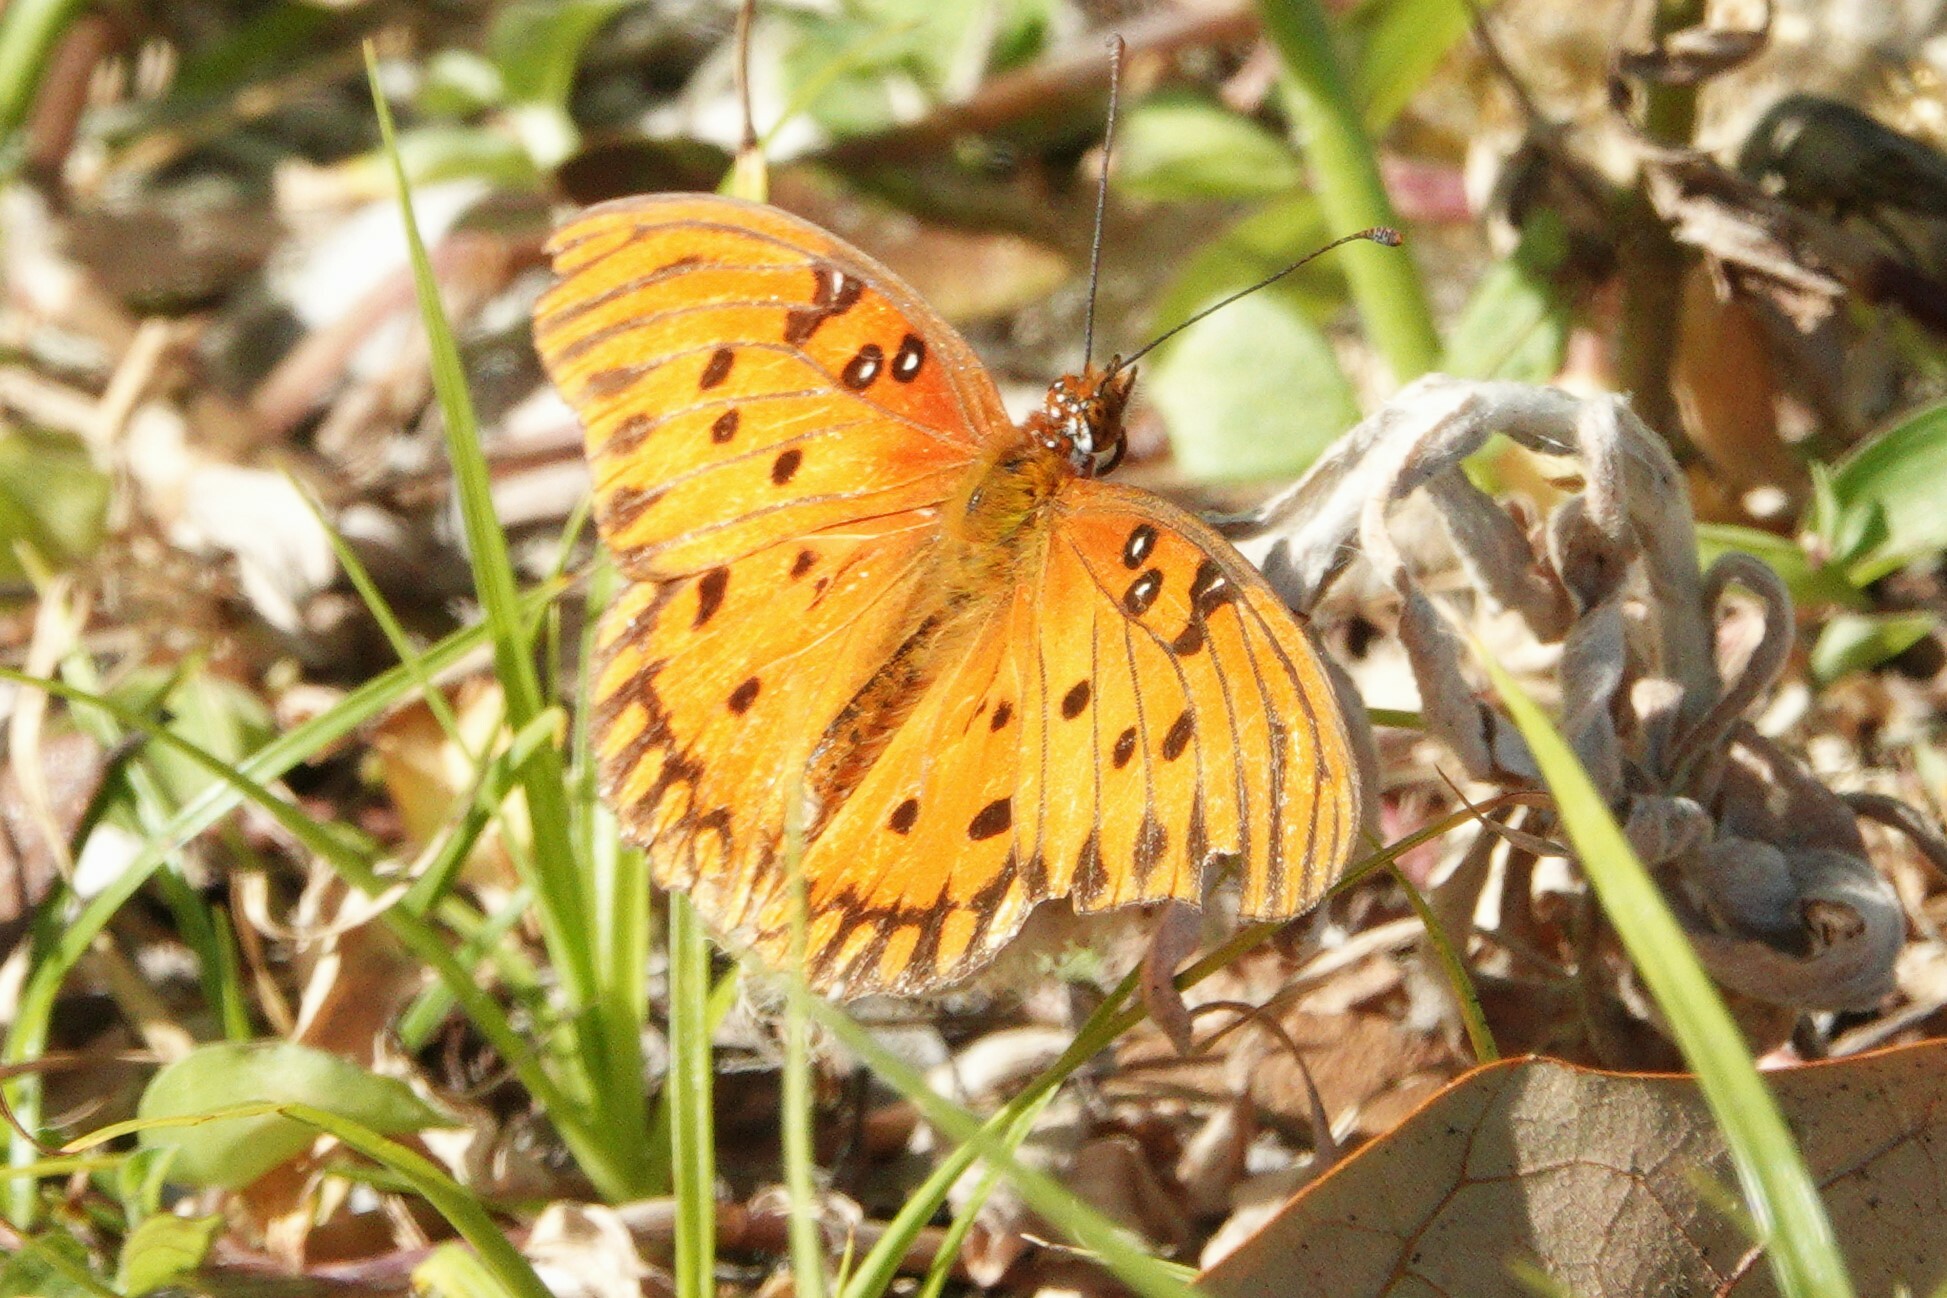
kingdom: Animalia
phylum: Arthropoda
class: Insecta
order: Lepidoptera
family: Nymphalidae
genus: Dione
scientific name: Dione vanillae
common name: Gulf fritillary
